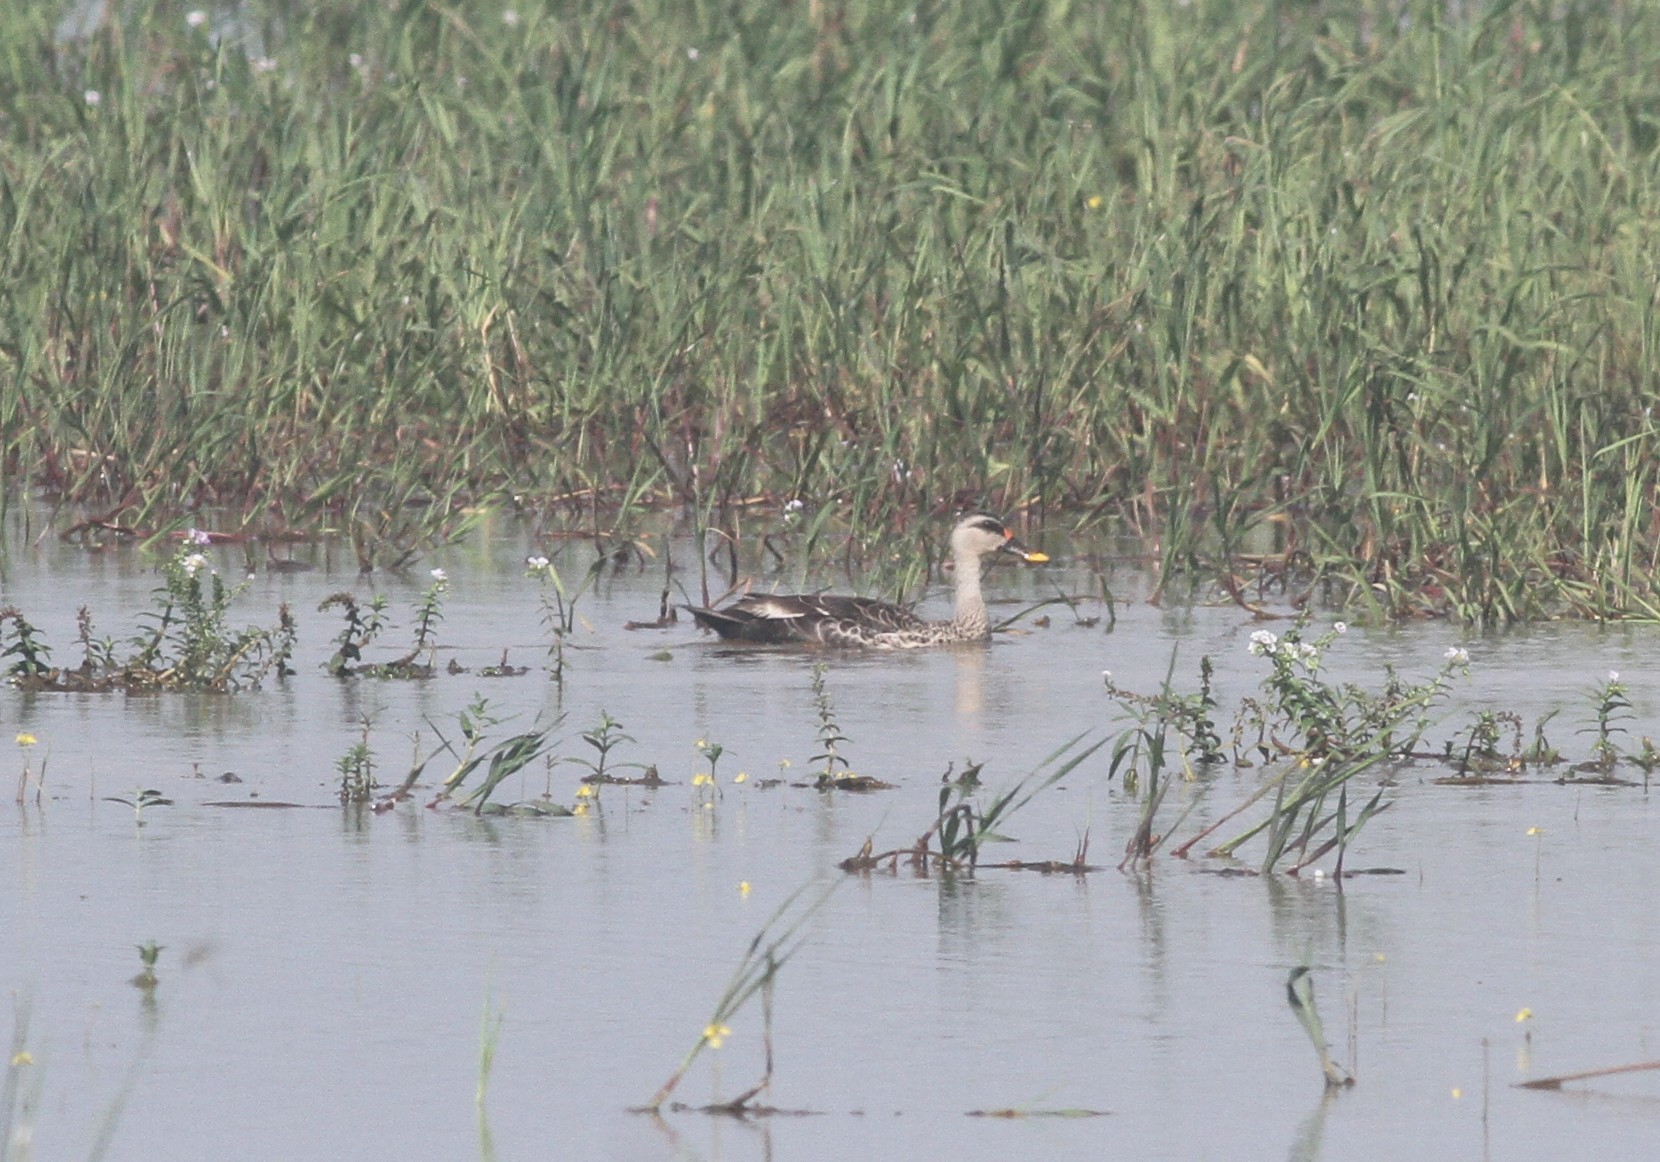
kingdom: Animalia
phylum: Chordata
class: Aves
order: Anseriformes
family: Anatidae
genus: Anas
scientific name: Anas poecilorhyncha
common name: Indian spot-billed duck
